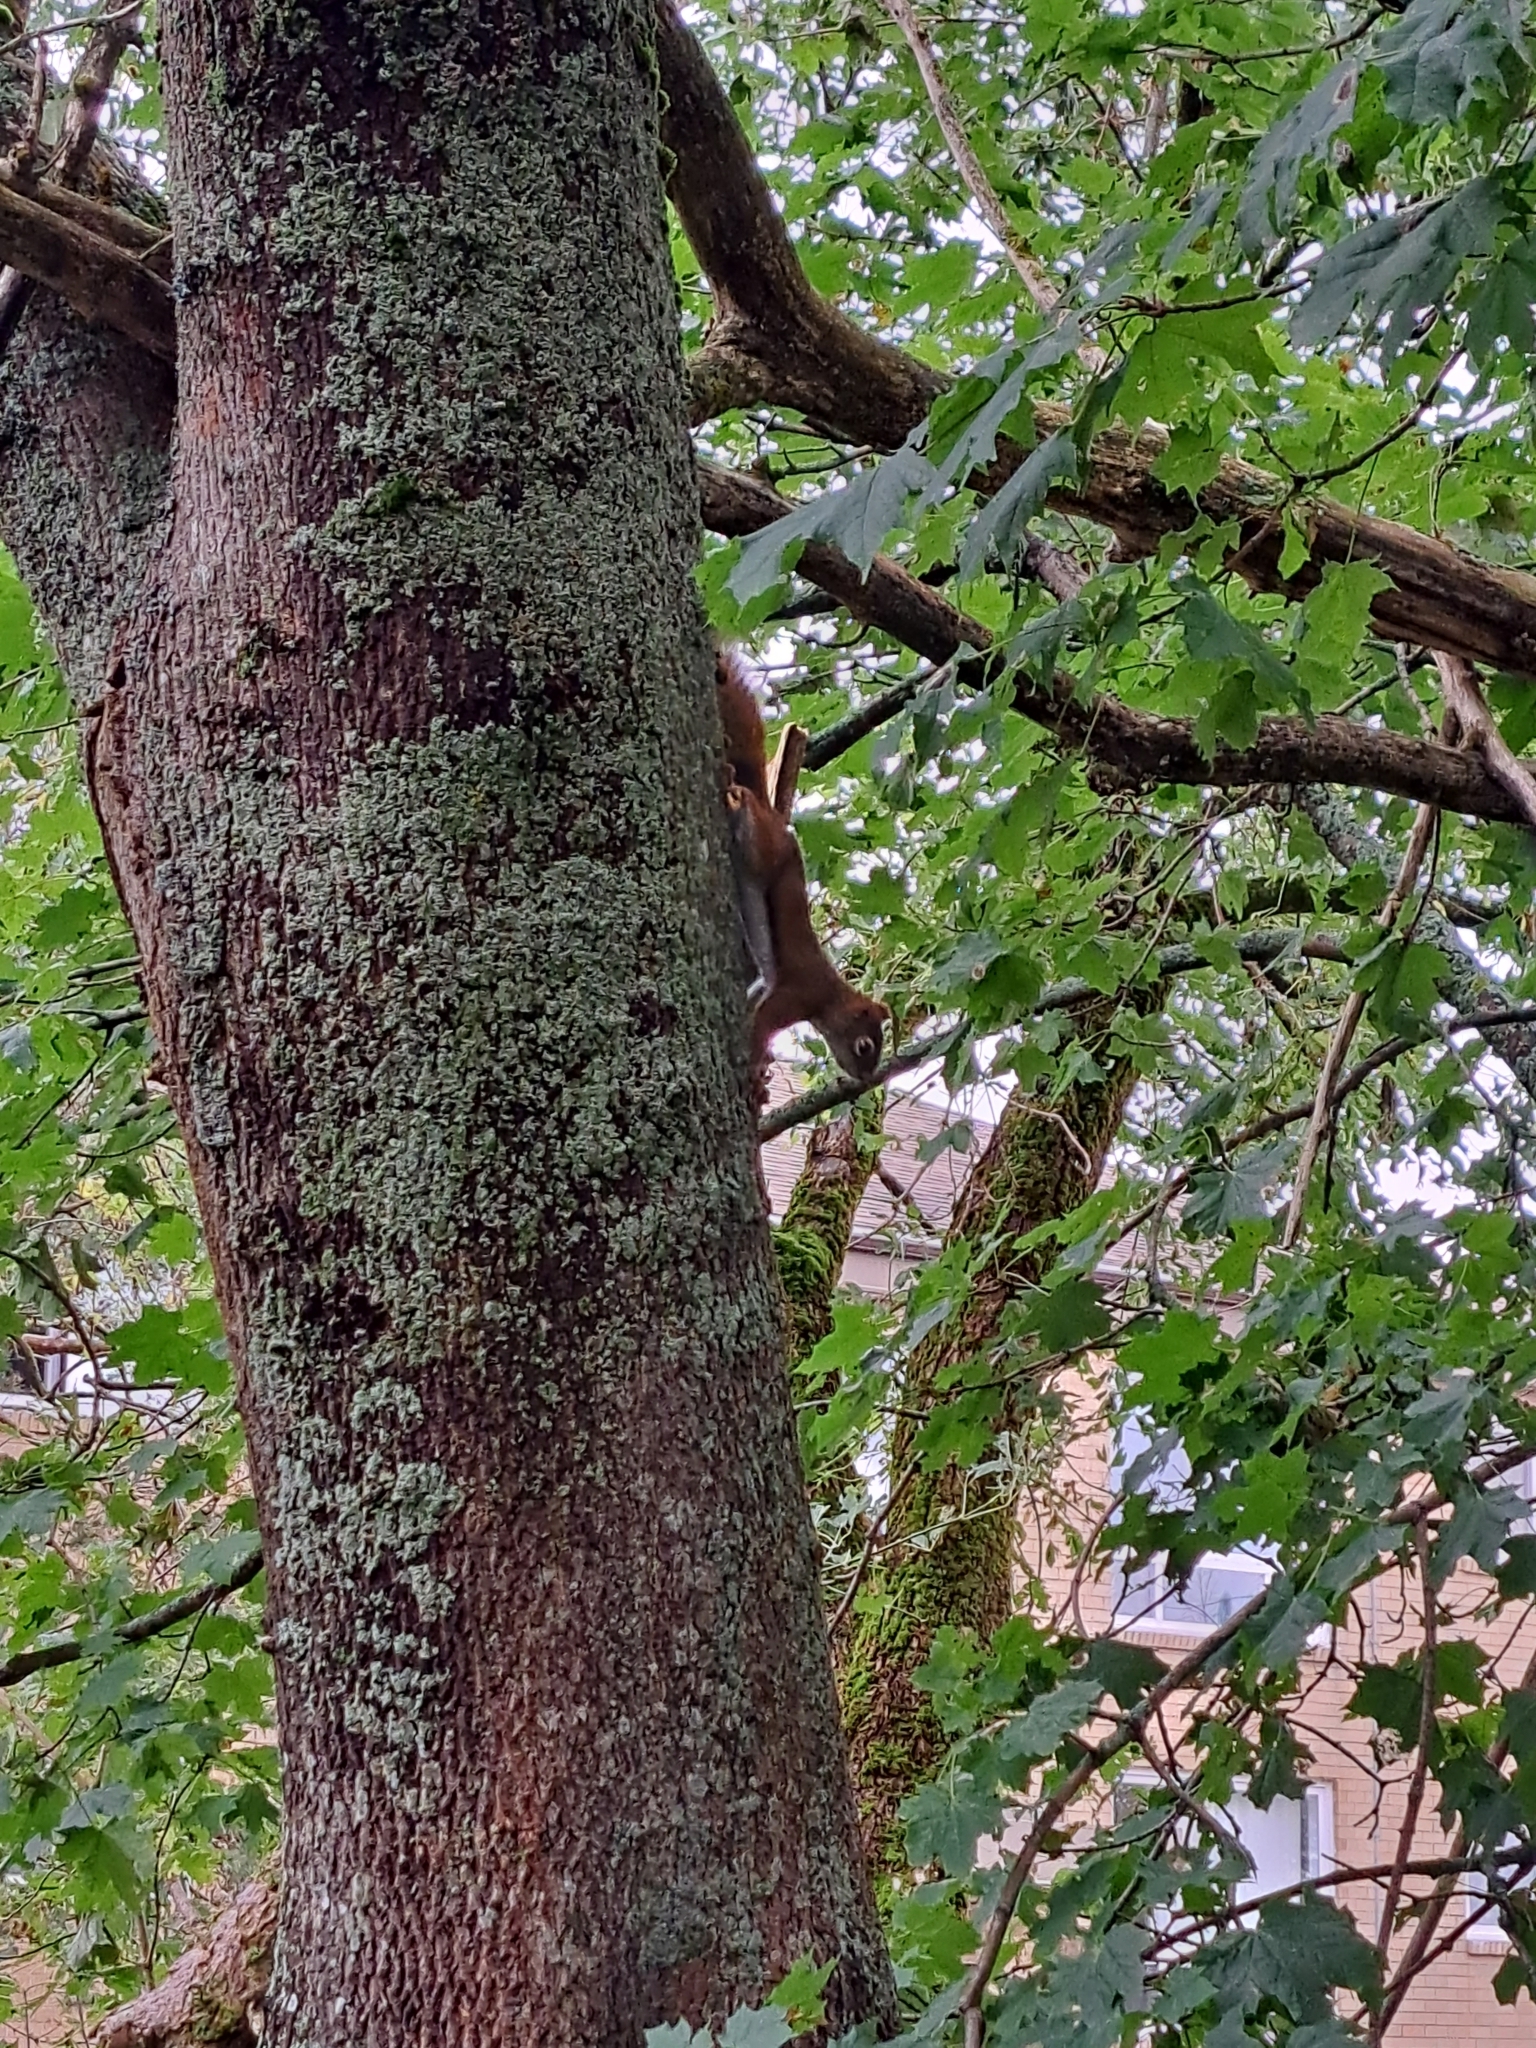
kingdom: Animalia
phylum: Chordata
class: Mammalia
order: Rodentia
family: Sciuridae
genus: Tamiasciurus
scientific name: Tamiasciurus hudsonicus
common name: Red squirrel
